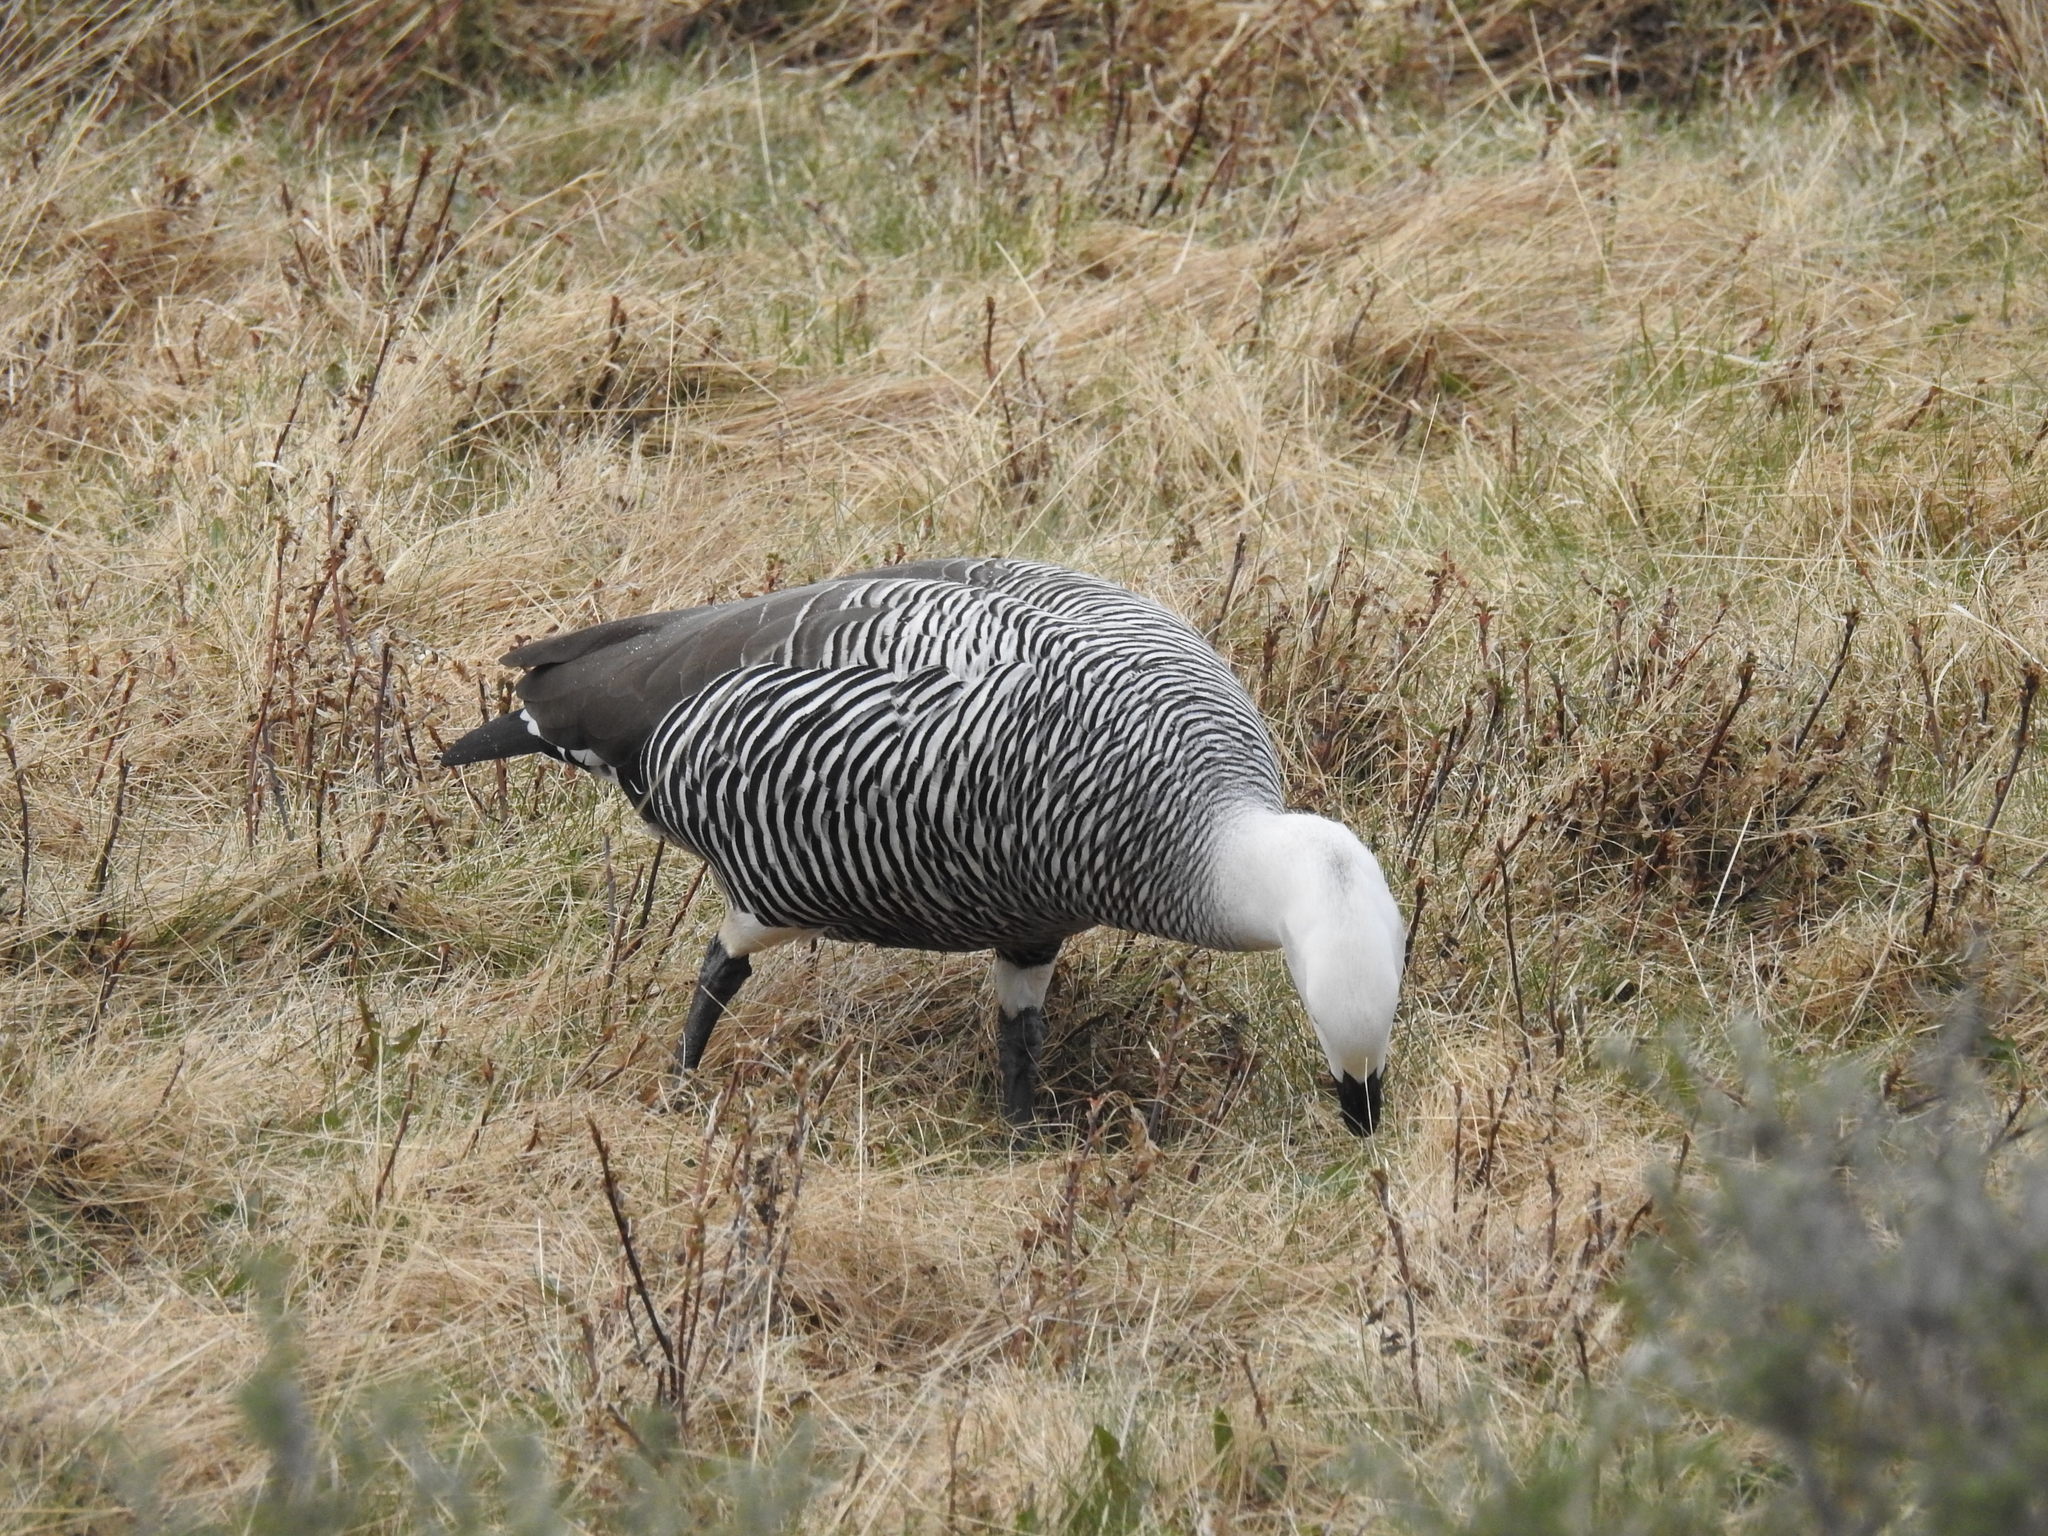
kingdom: Animalia
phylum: Chordata
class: Aves
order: Anseriformes
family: Anatidae
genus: Chloephaga
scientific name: Chloephaga picta
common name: Upland goose
